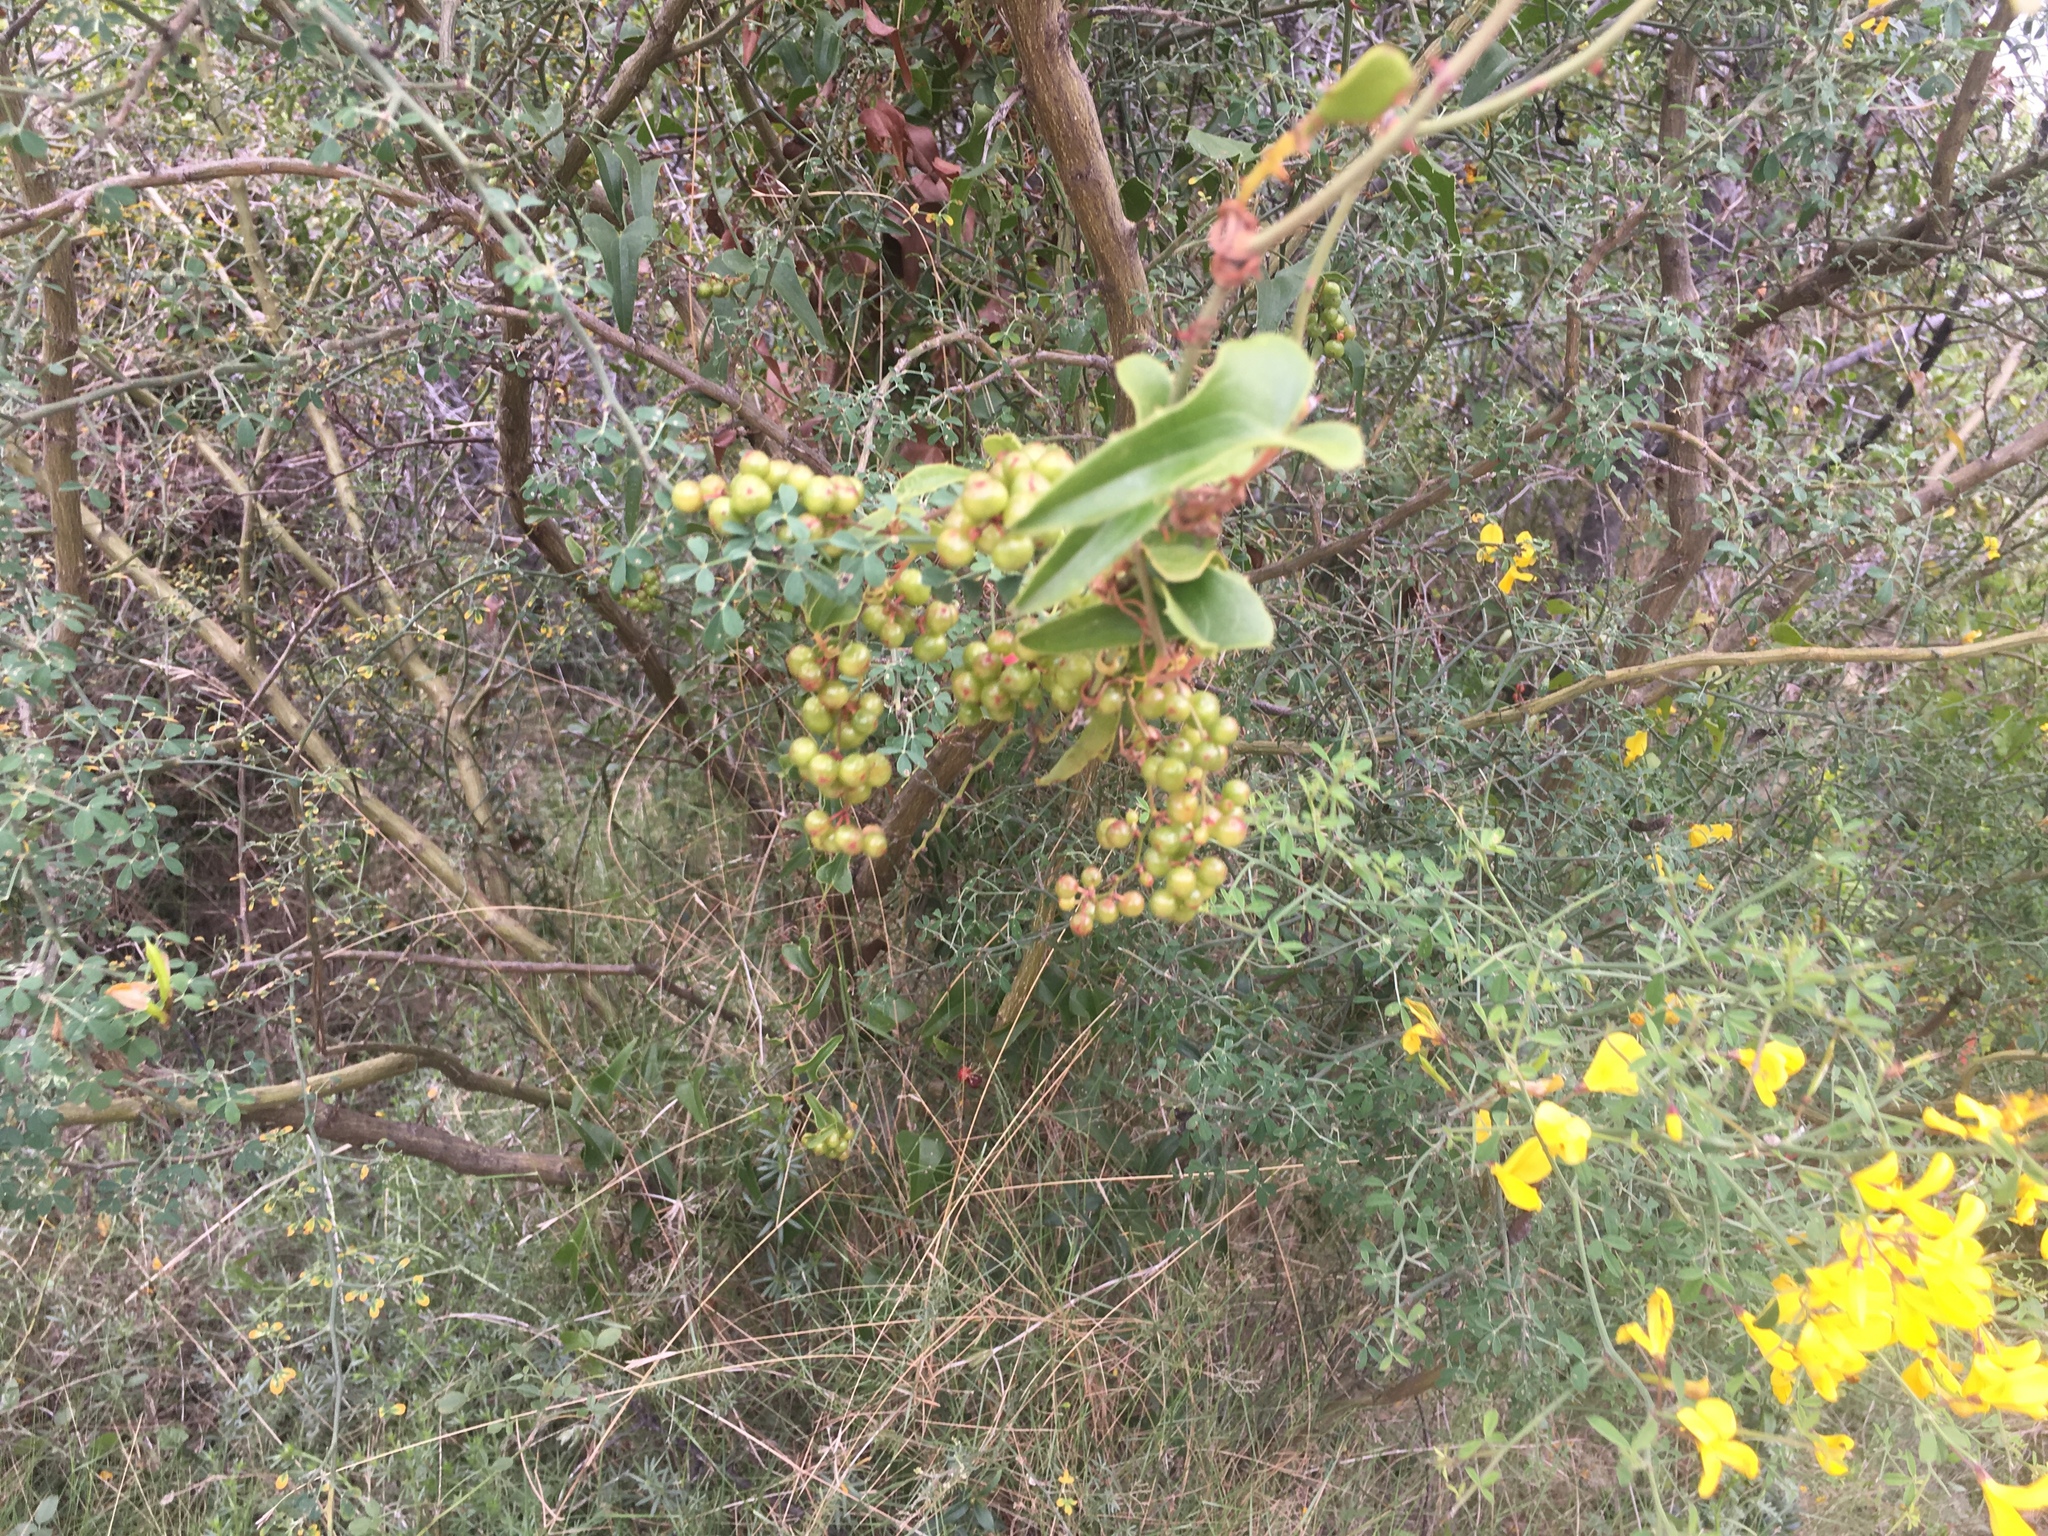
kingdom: Plantae
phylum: Tracheophyta
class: Liliopsida
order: Liliales
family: Smilacaceae
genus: Smilax
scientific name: Smilax aspera
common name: Common smilax
